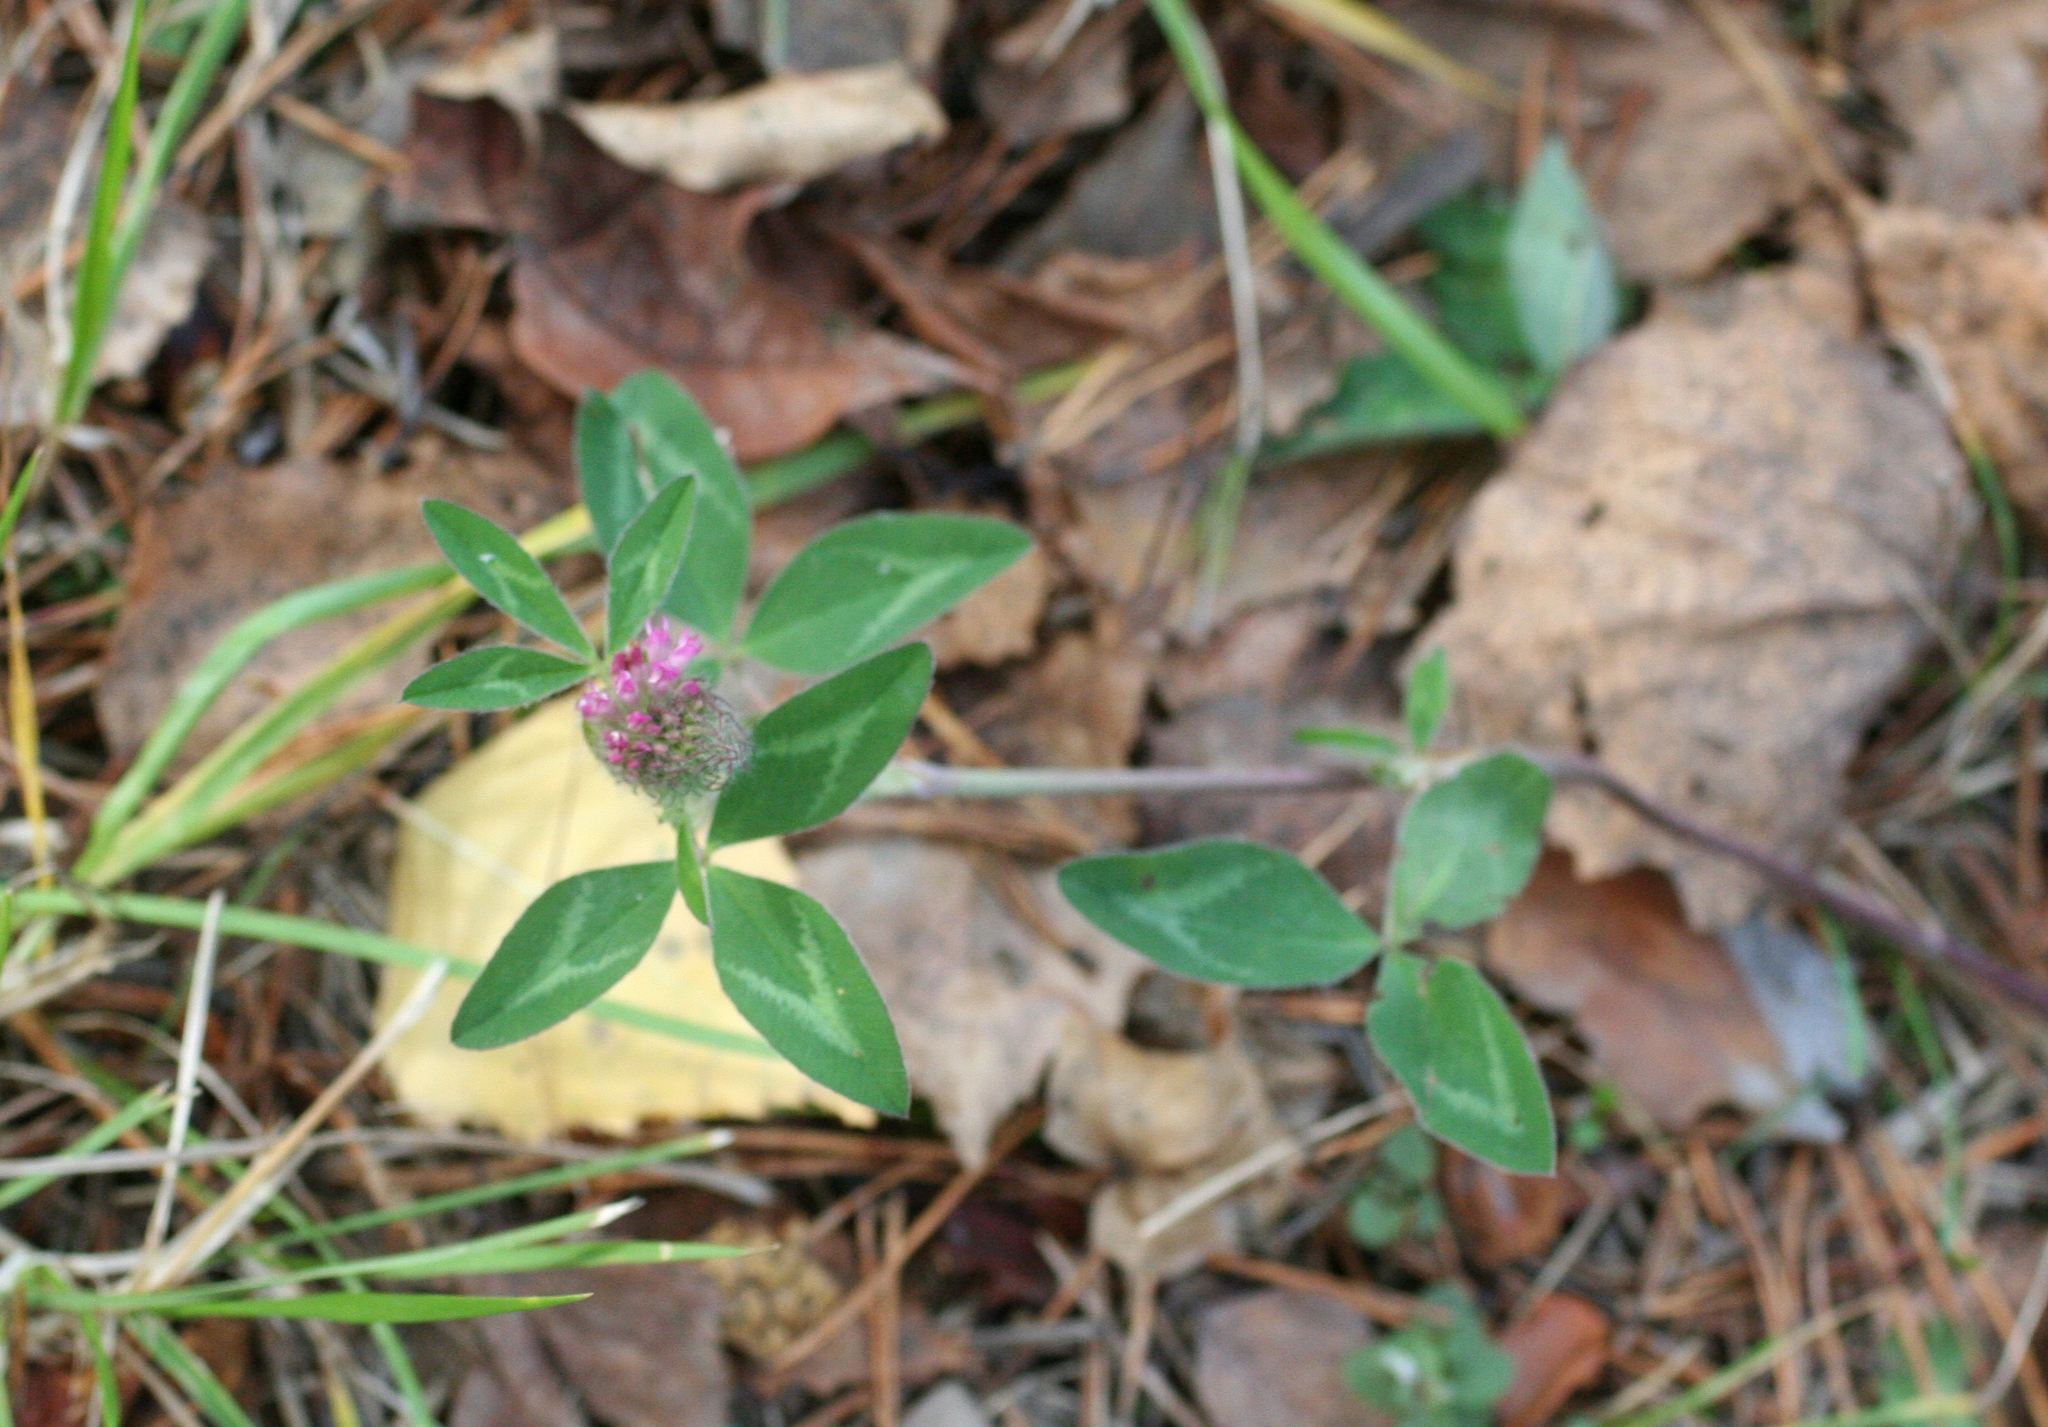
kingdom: Plantae
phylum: Tracheophyta
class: Magnoliopsida
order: Fabales
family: Fabaceae
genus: Trifolium
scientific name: Trifolium pratense
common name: Red clover
